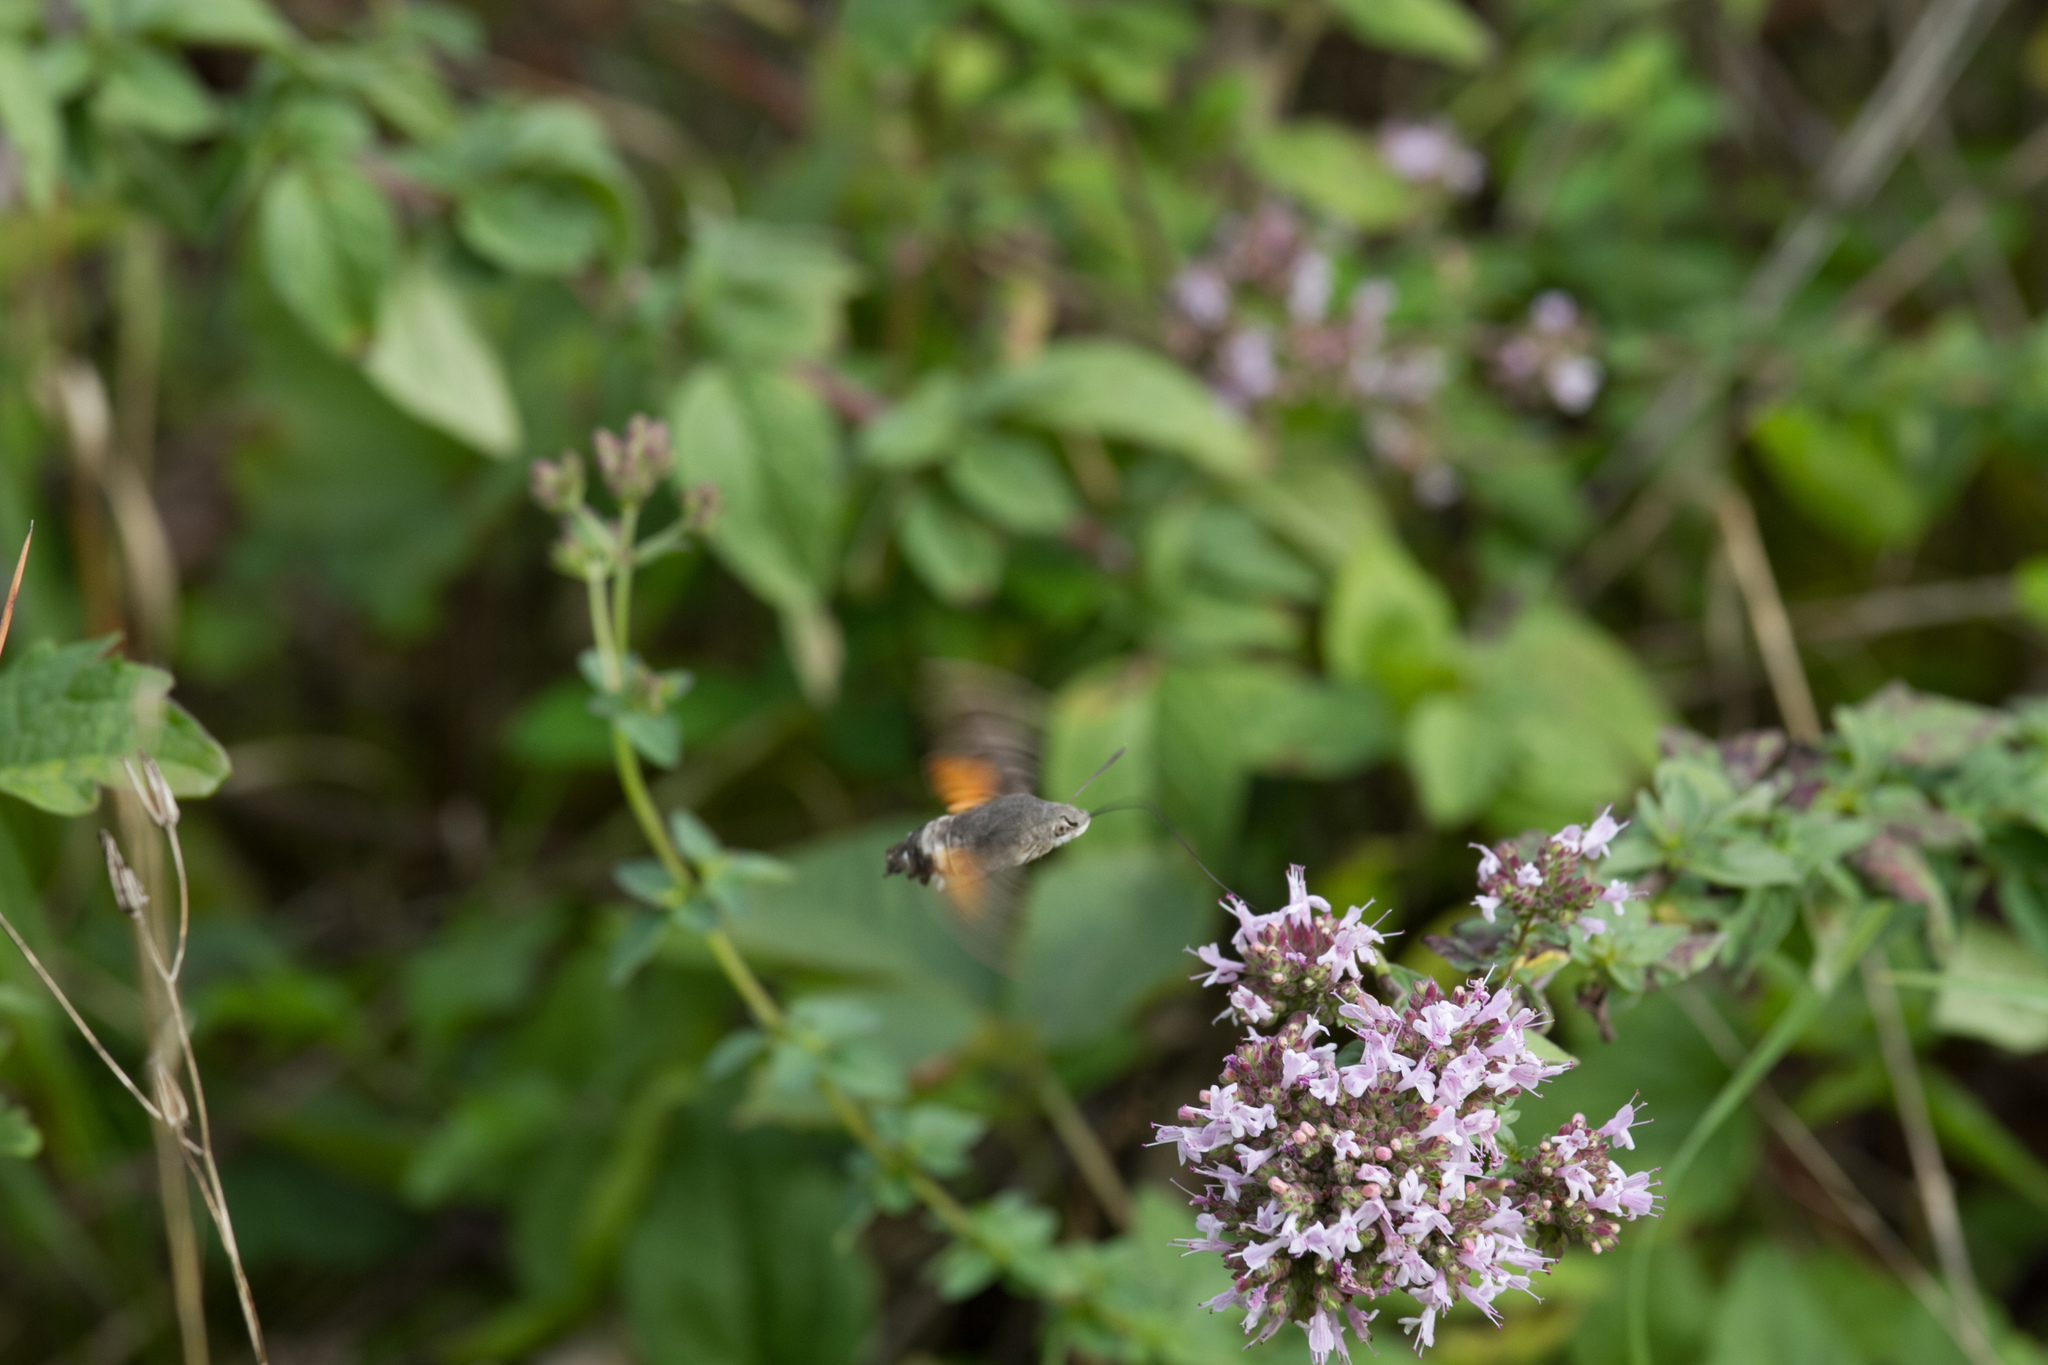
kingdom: Animalia
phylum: Arthropoda
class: Insecta
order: Lepidoptera
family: Sphingidae
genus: Macroglossum
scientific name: Macroglossum stellatarum
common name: Humming-bird hawk-moth
